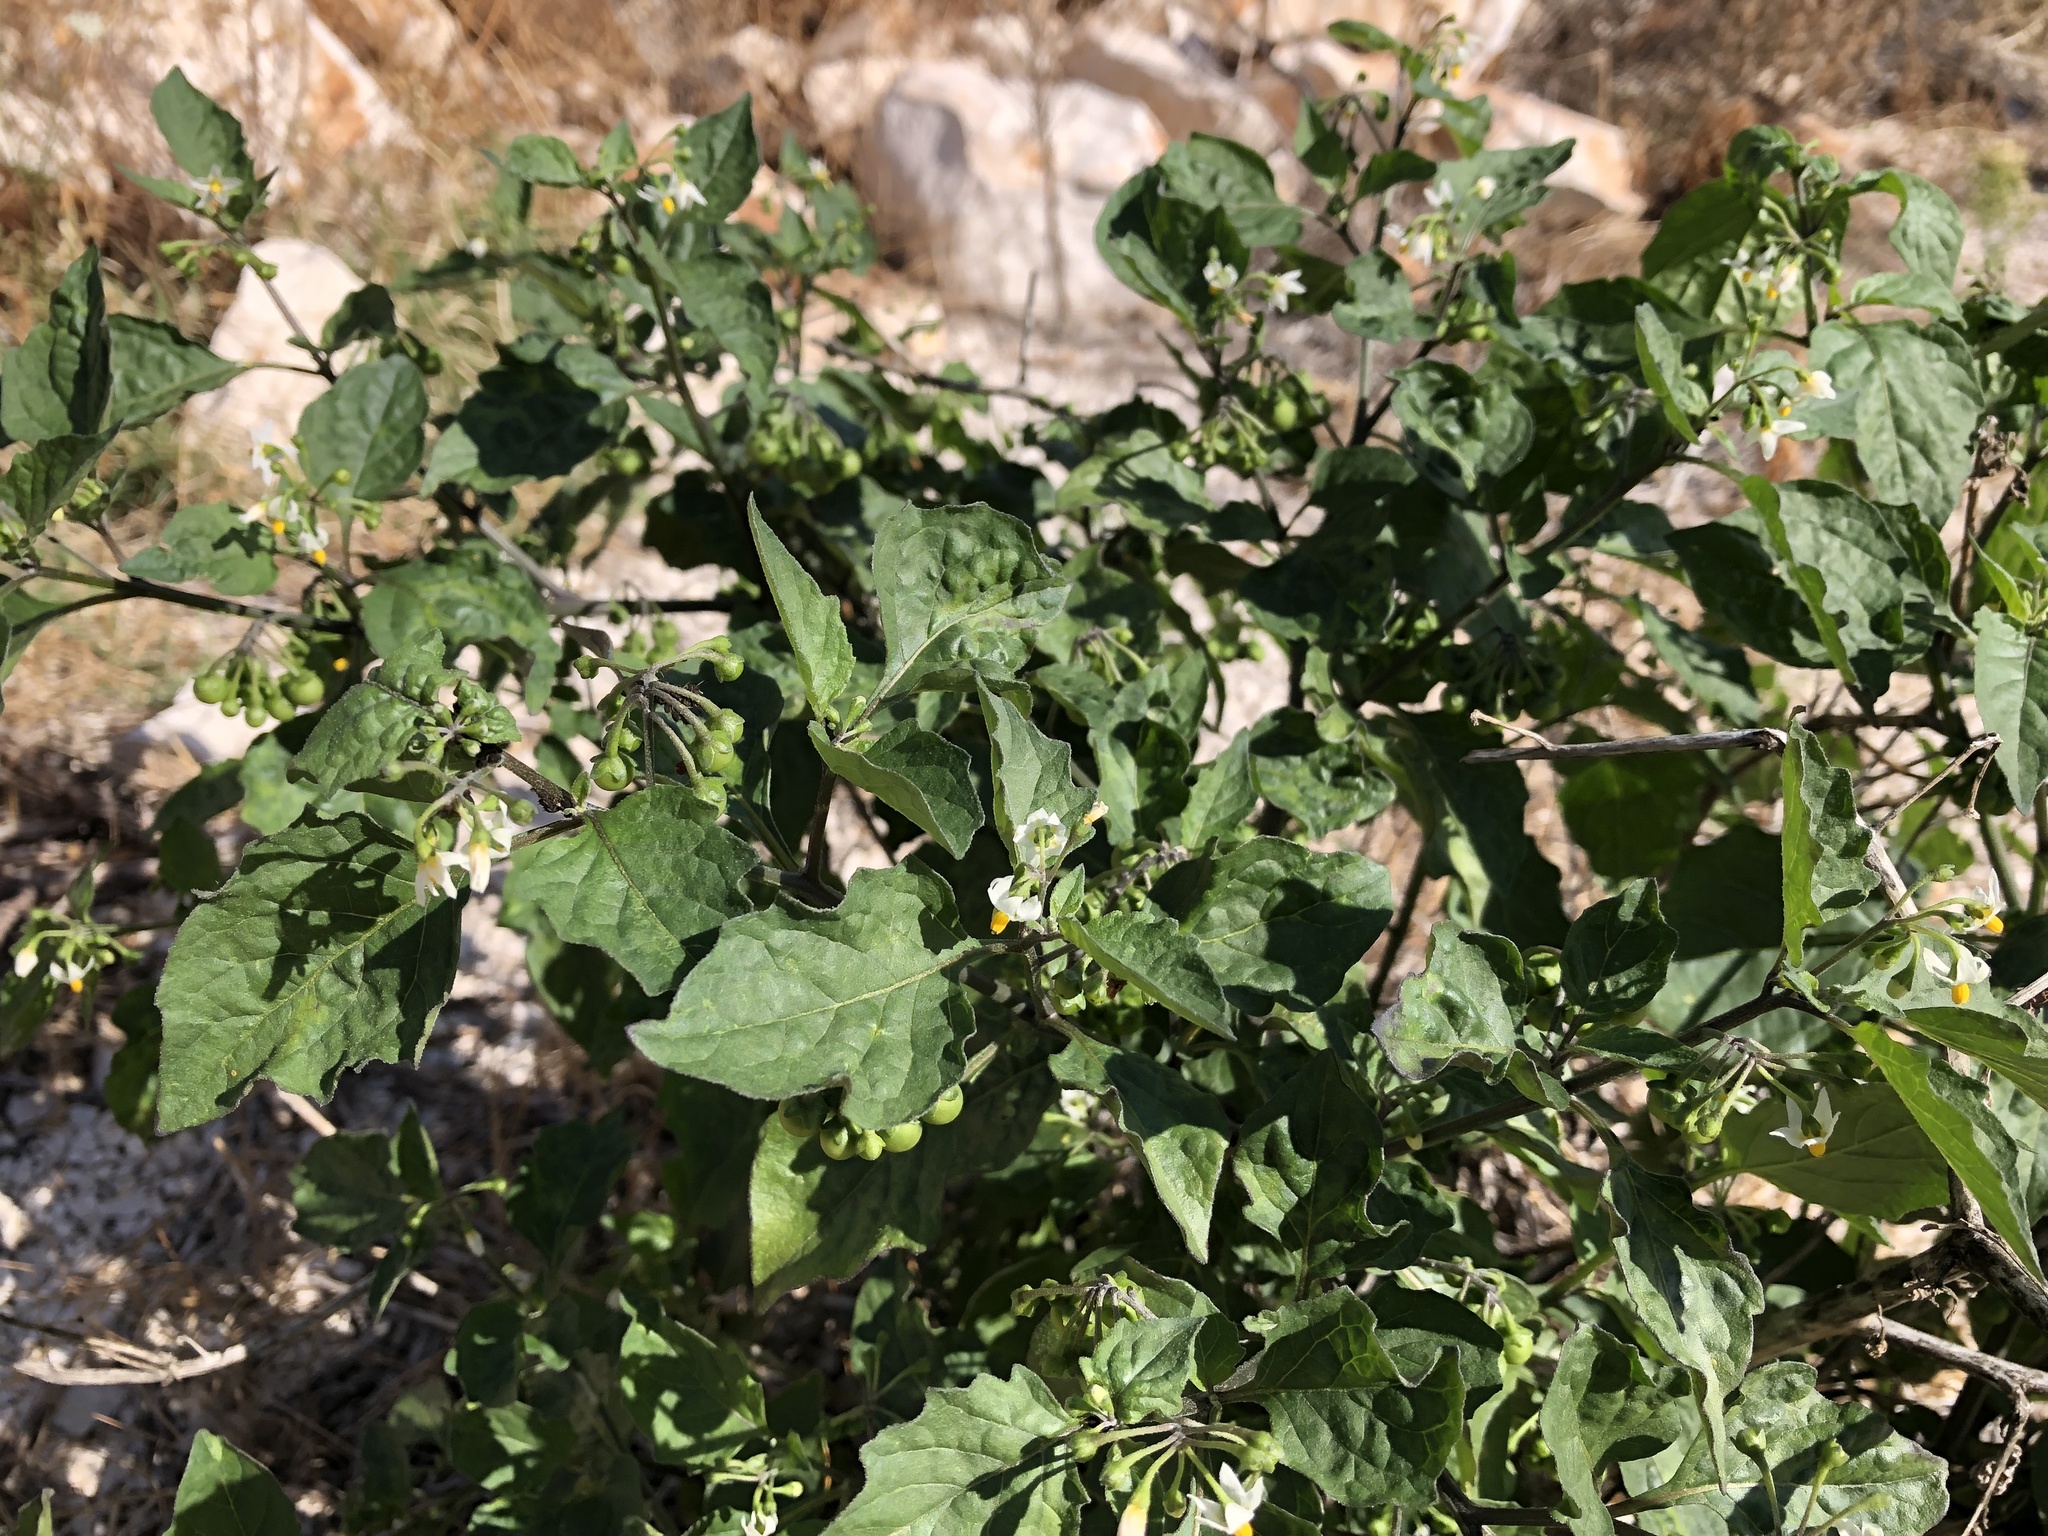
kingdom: Plantae
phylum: Tracheophyta
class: Magnoliopsida
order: Solanales
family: Solanaceae
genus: Solanum
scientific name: Solanum nigrum
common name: Black nightshade
